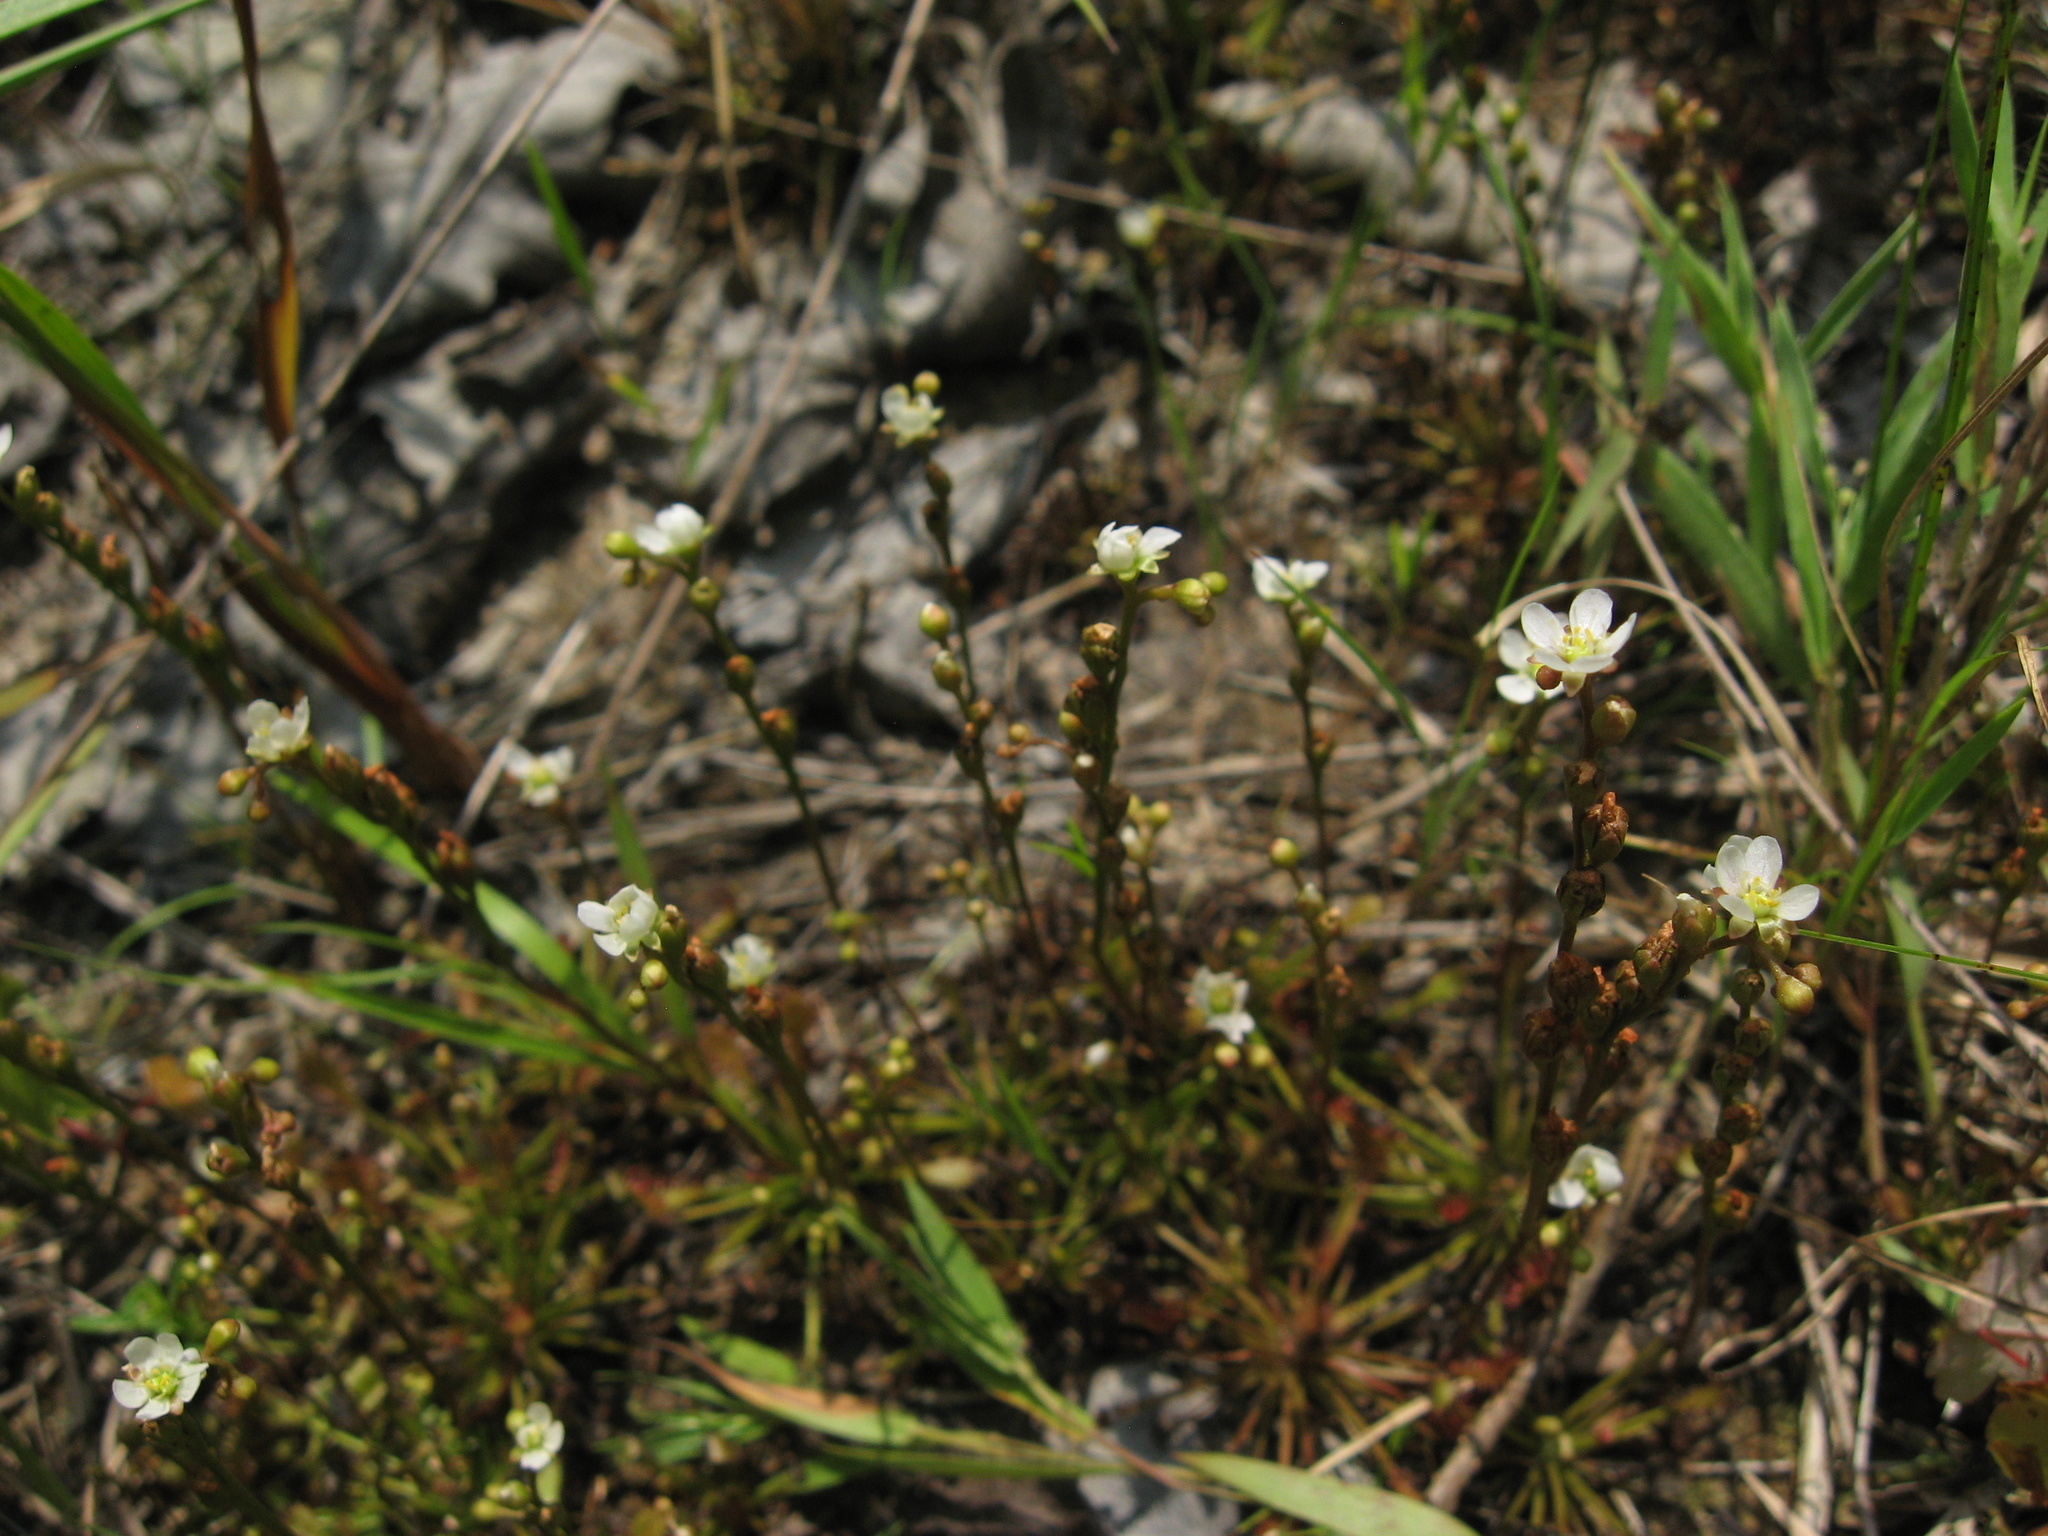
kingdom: Plantae
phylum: Tracheophyta
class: Magnoliopsida
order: Caryophyllales
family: Droseraceae
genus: Drosera
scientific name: Drosera intermedia
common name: Oblong-leaved sundew
